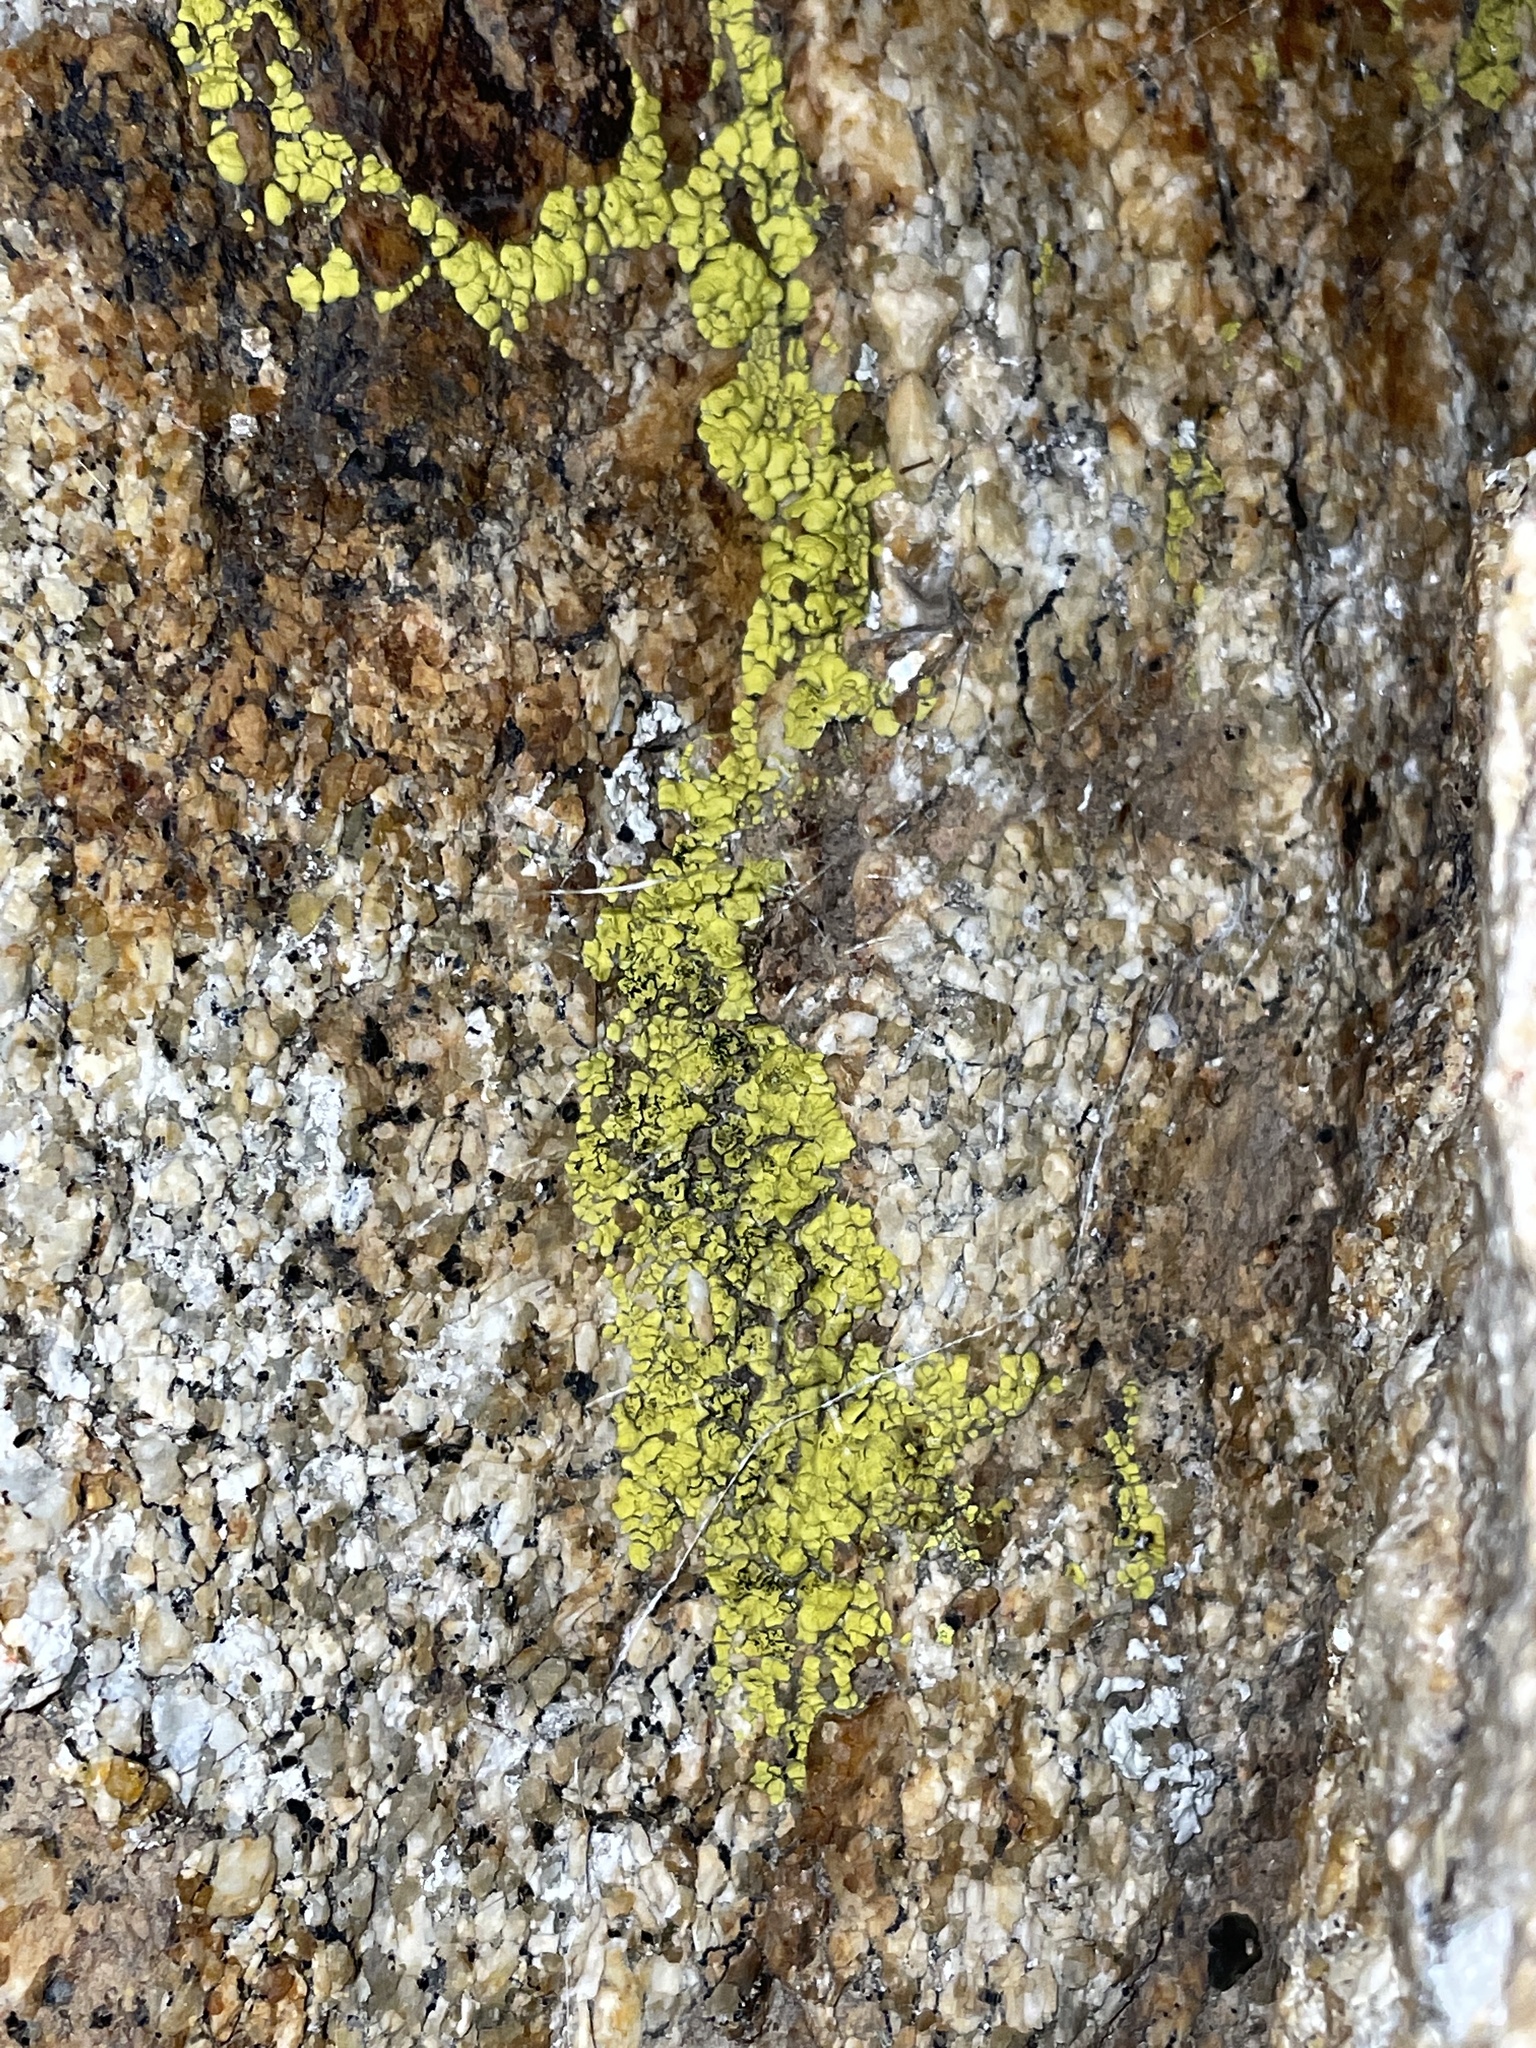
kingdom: Fungi
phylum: Ascomycota
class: Lecanoromycetes
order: Acarosporales
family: Acarosporaceae
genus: Acarospora
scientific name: Acarospora socialis
